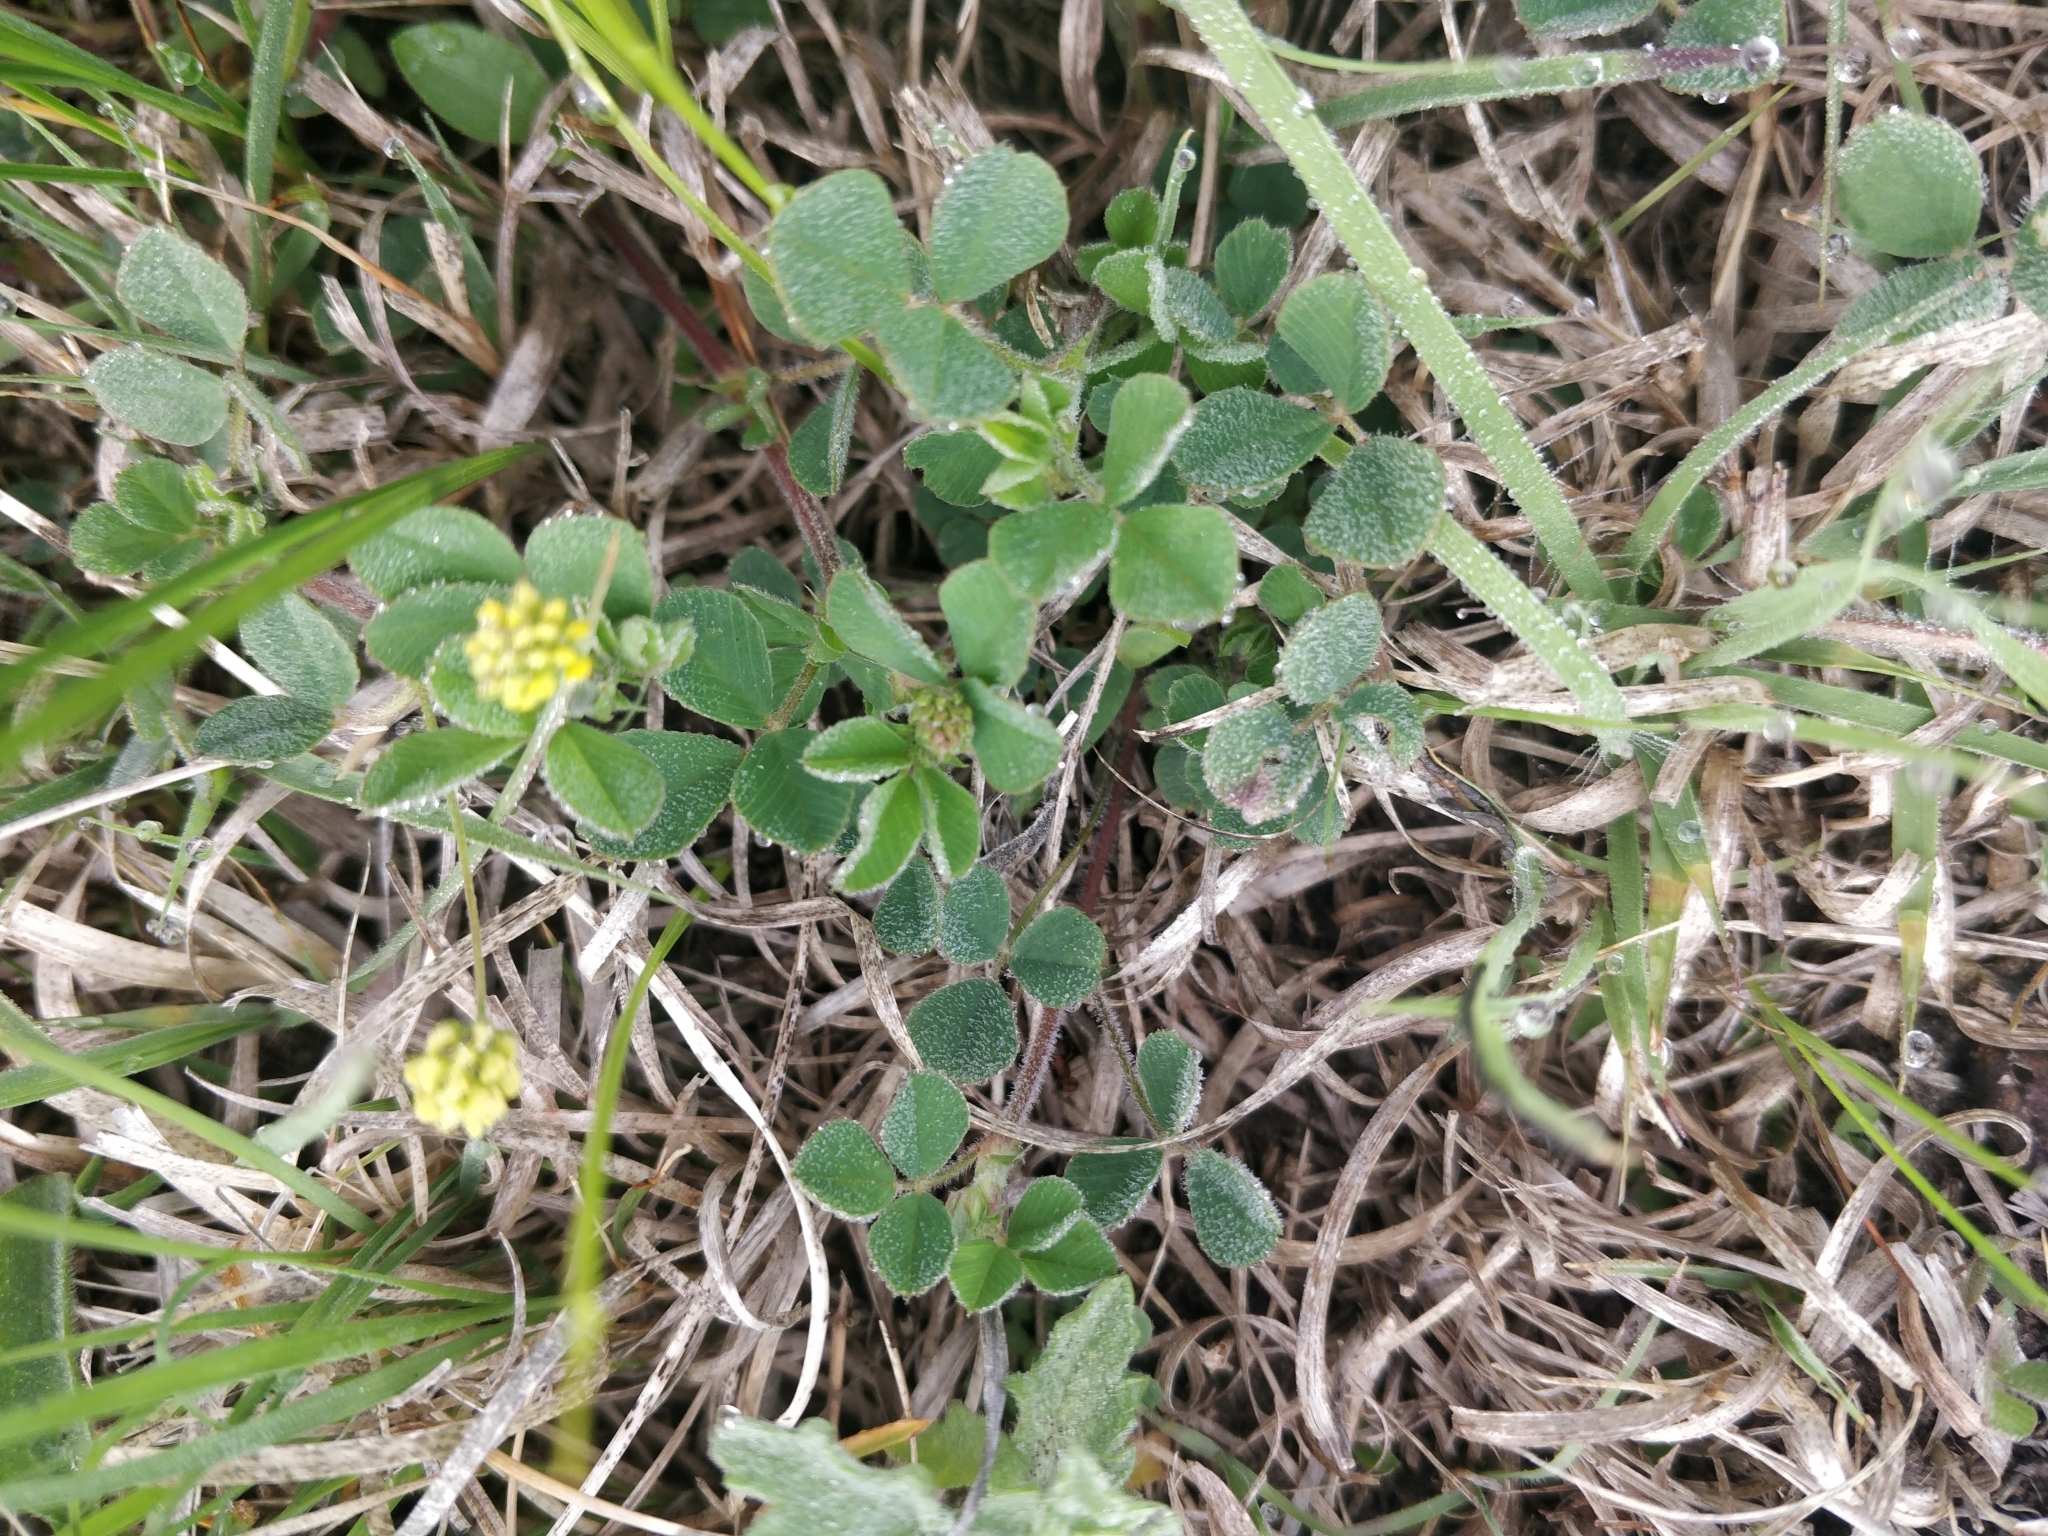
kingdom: Plantae
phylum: Tracheophyta
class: Magnoliopsida
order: Fabales
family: Fabaceae
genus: Medicago
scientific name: Medicago lupulina
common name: Black medick
